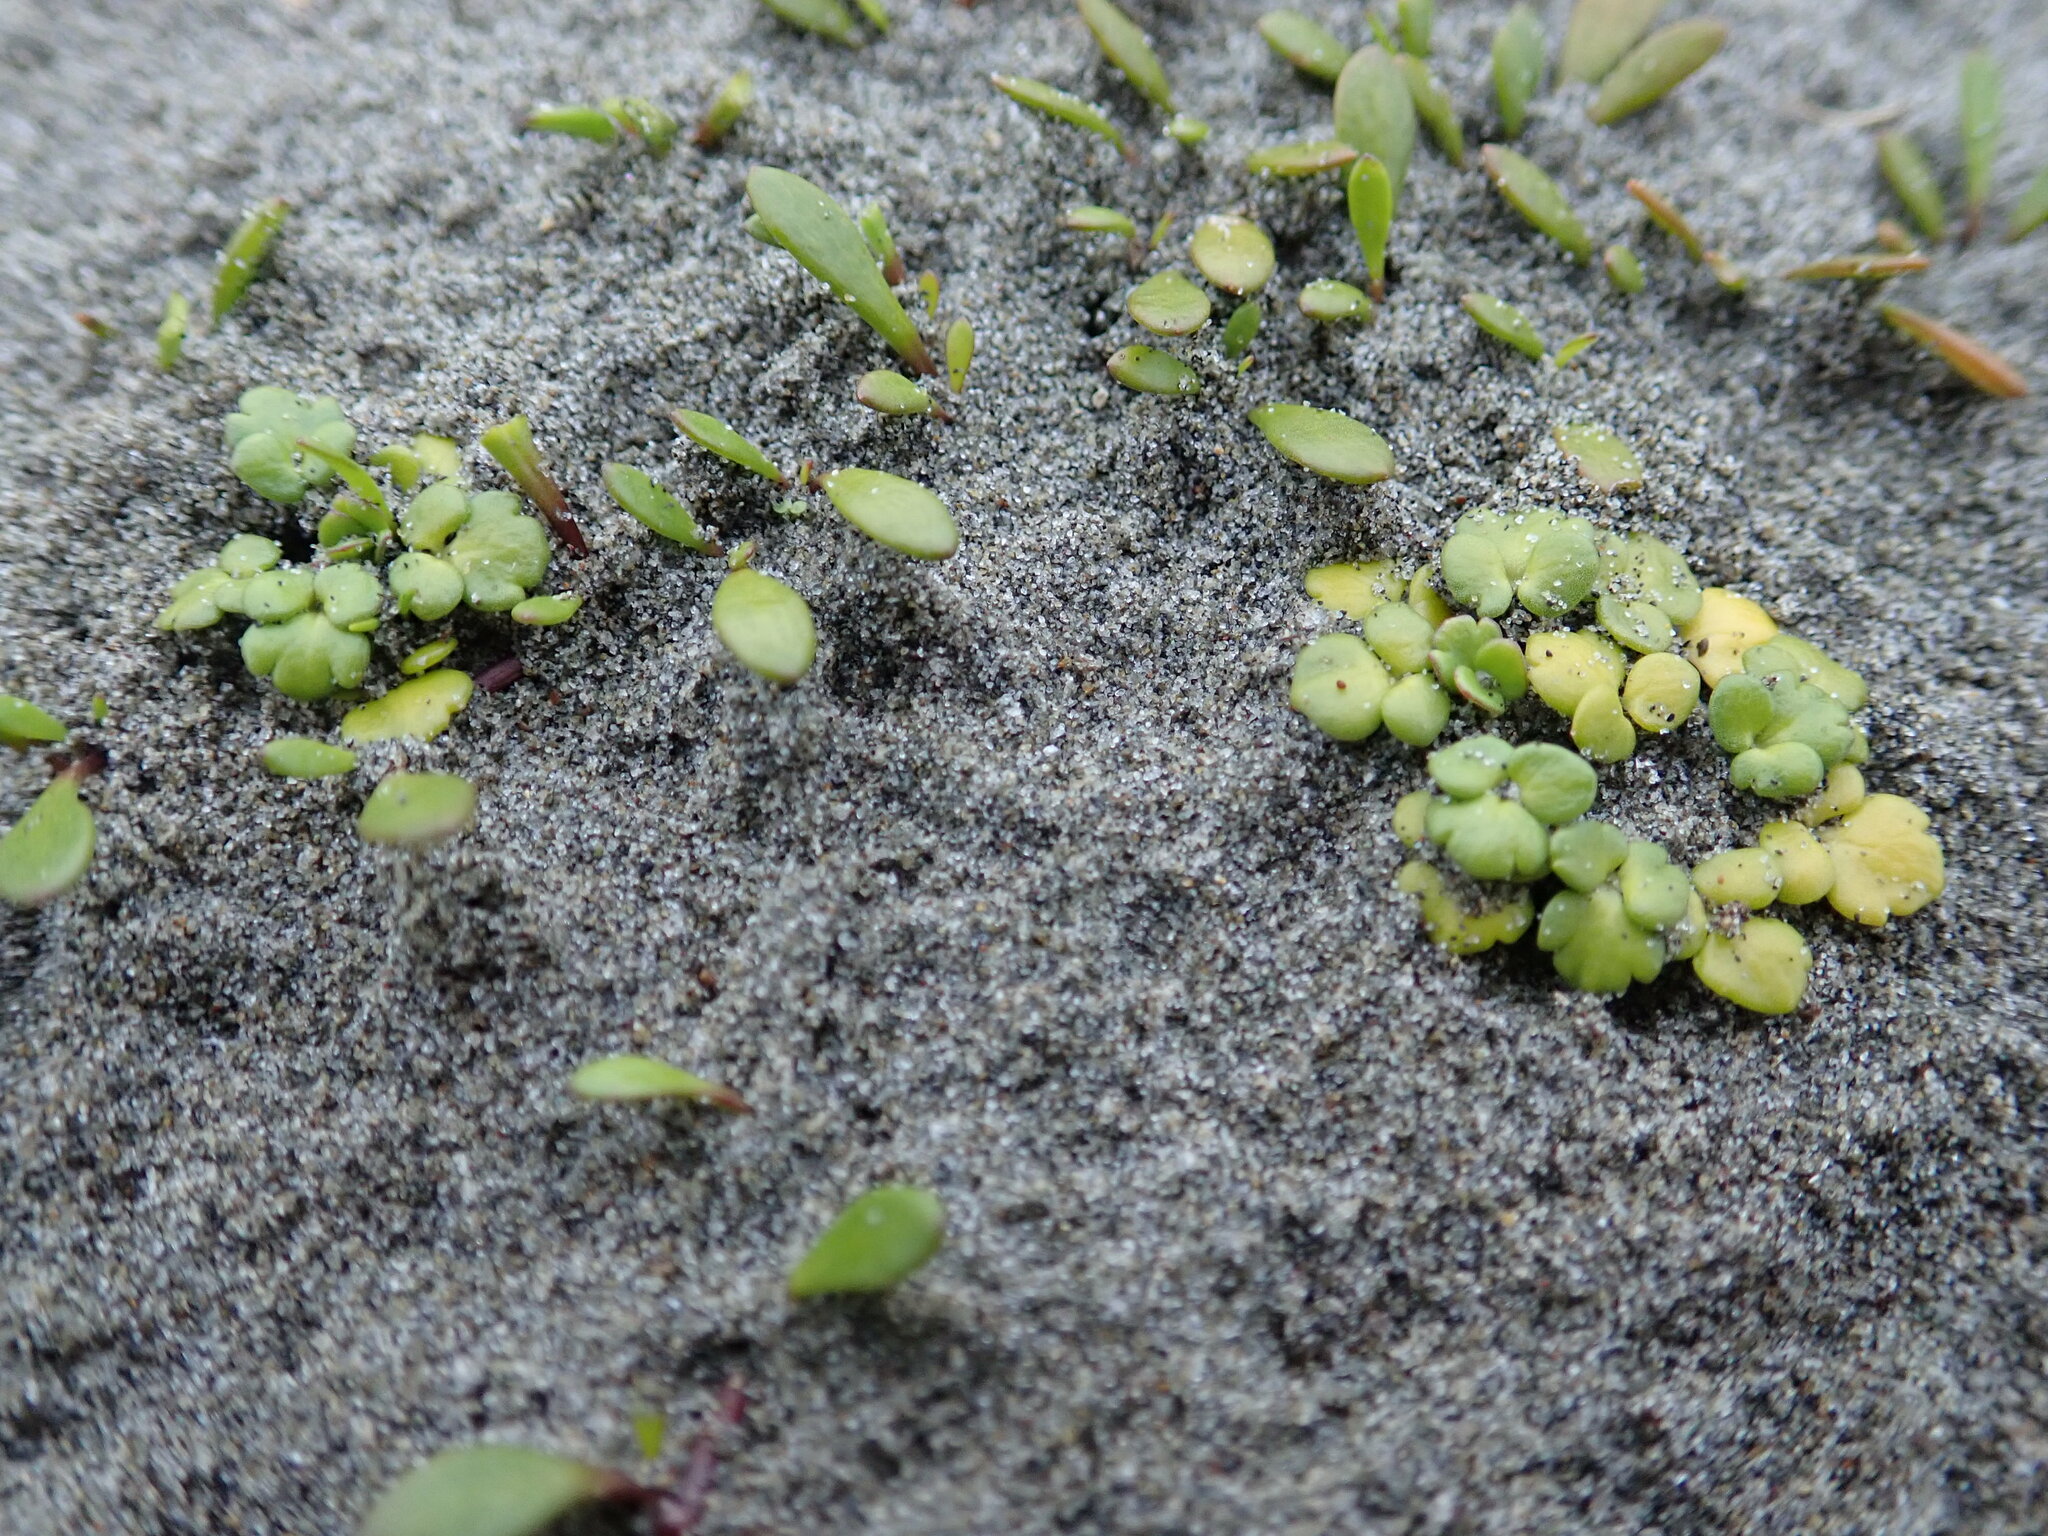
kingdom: Plantae
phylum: Tracheophyta
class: Magnoliopsida
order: Ranunculales
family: Ranunculaceae
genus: Ranunculus
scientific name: Ranunculus acaulis
